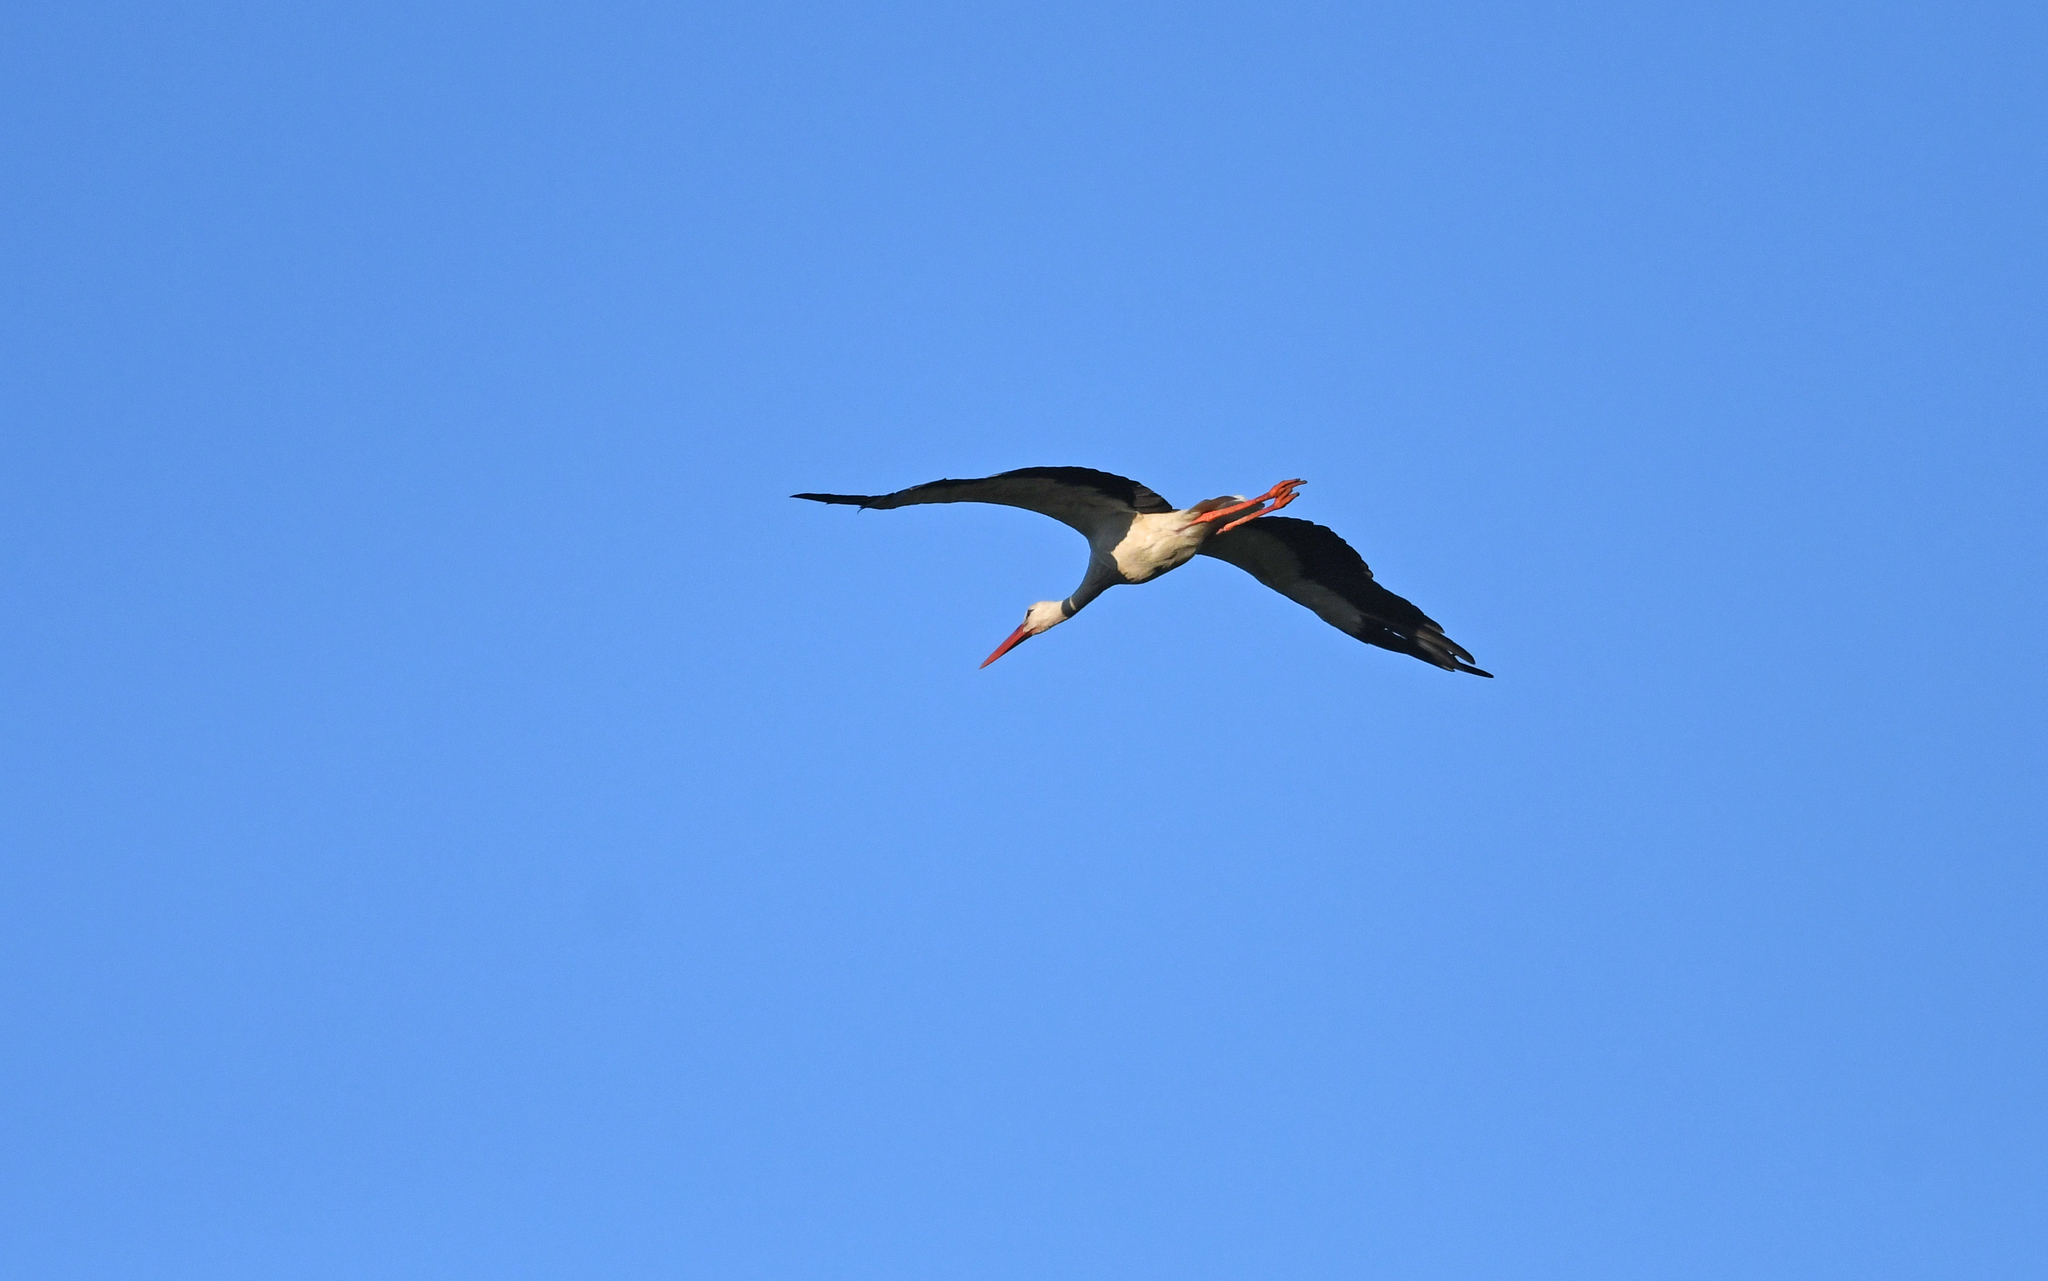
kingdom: Animalia
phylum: Chordata
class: Aves
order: Ciconiiformes
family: Ciconiidae
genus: Ciconia
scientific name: Ciconia ciconia
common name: White stork
